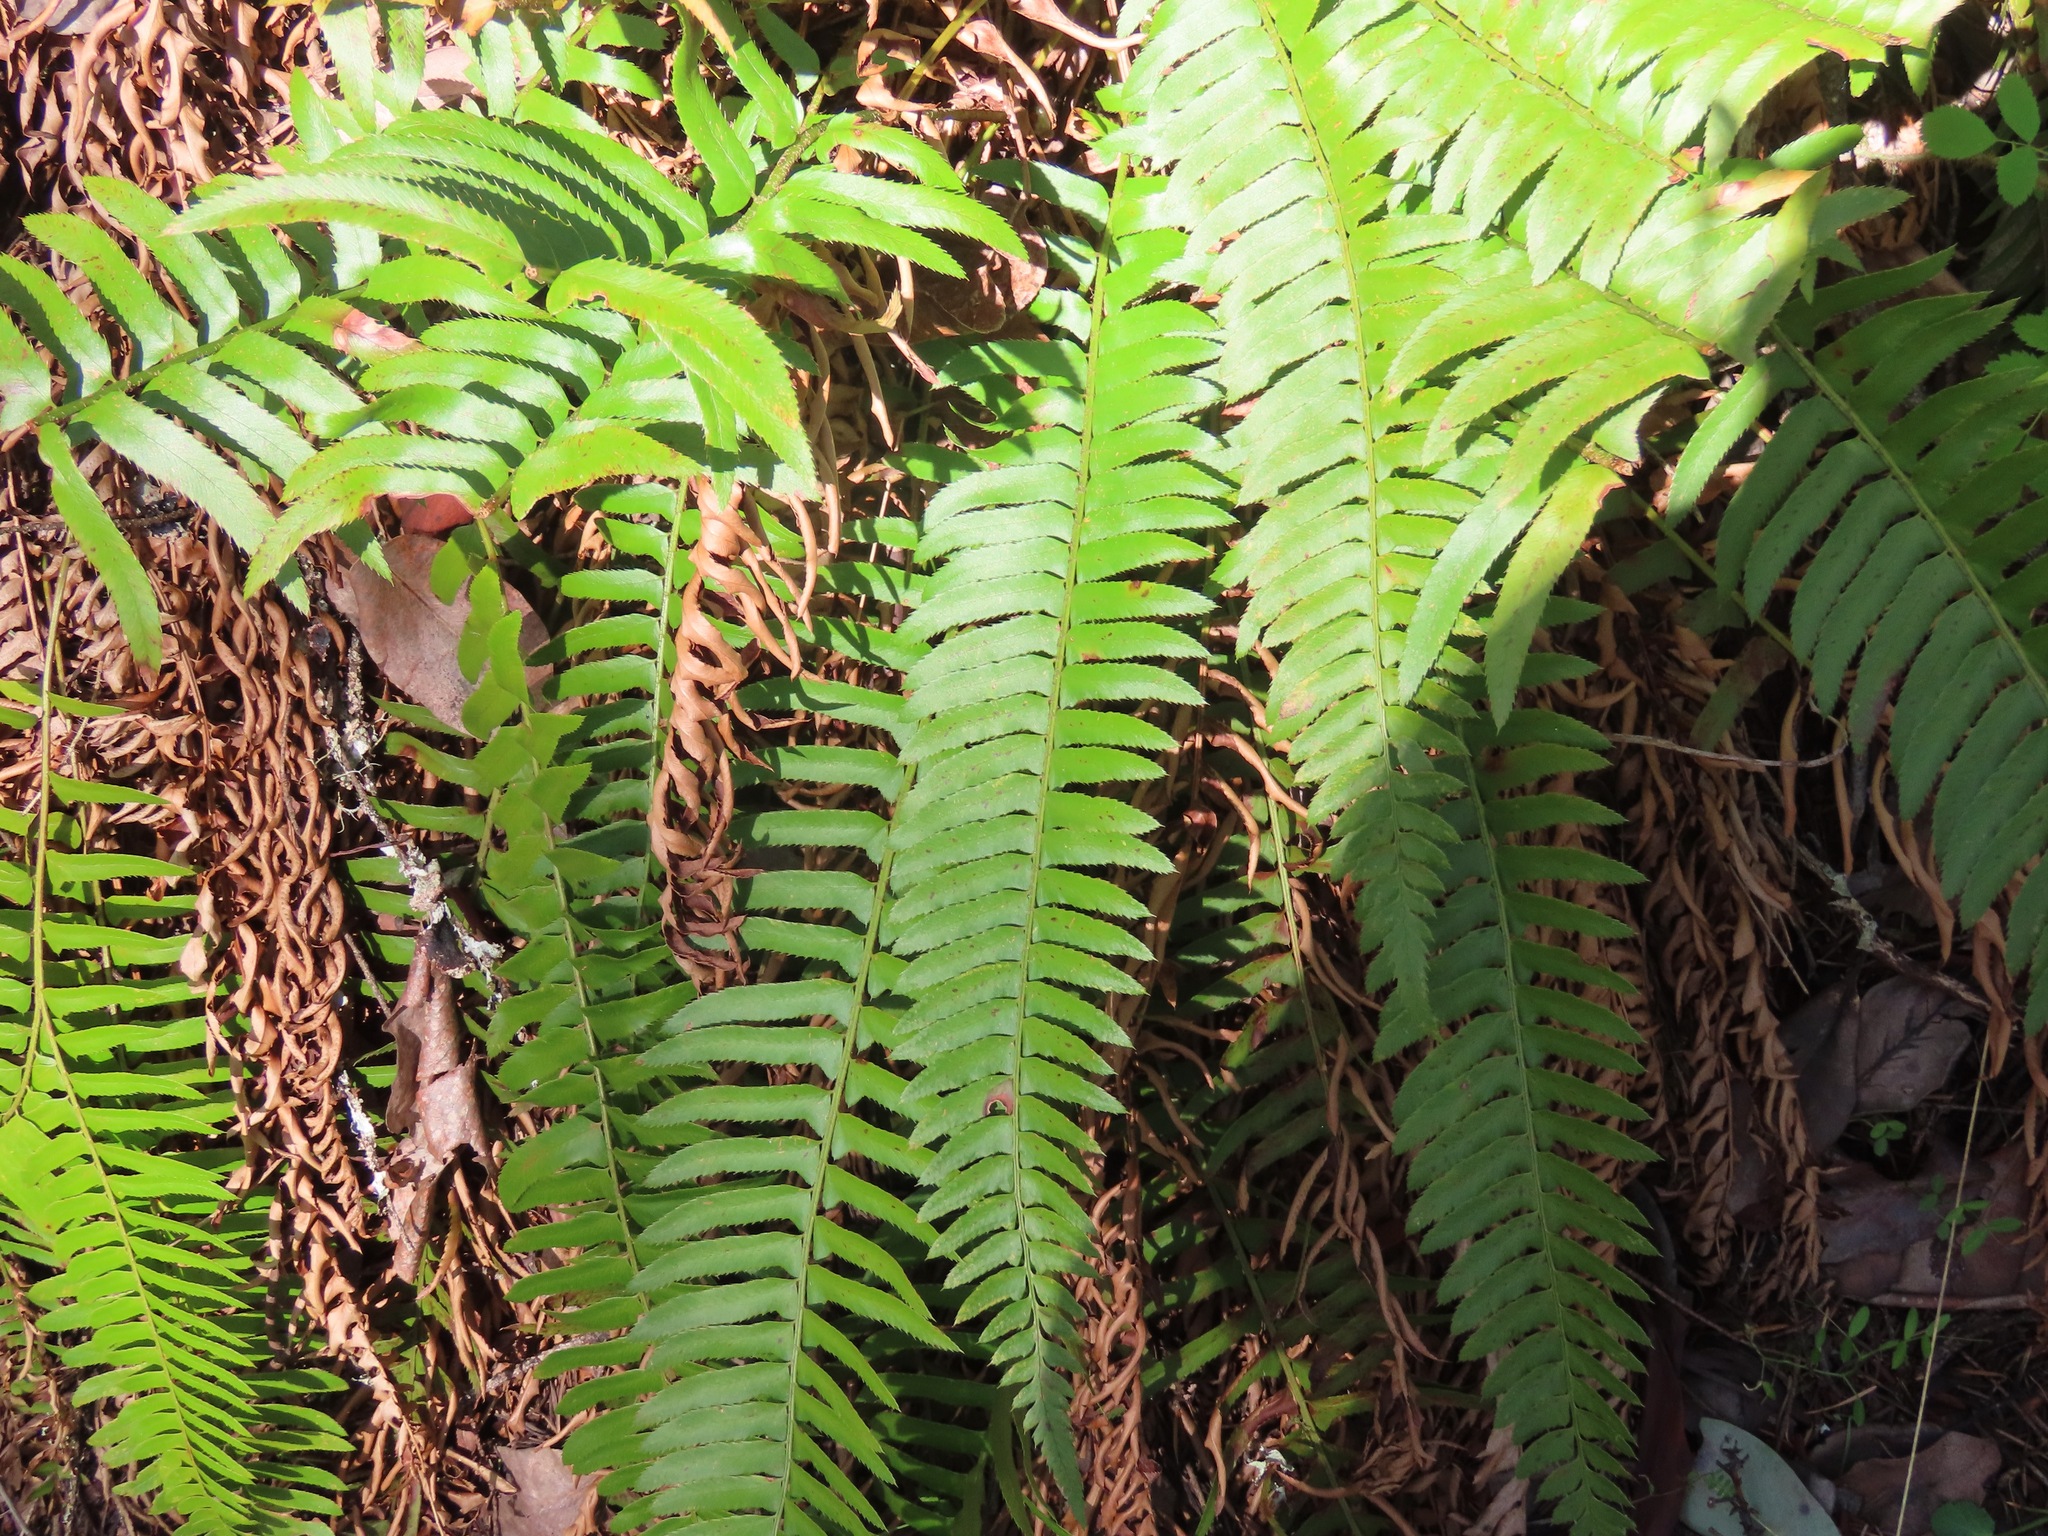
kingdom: Plantae
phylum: Tracheophyta
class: Polypodiopsida
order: Polypodiales
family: Dryopteridaceae
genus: Polystichum
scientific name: Polystichum munitum
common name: Western sword-fern
